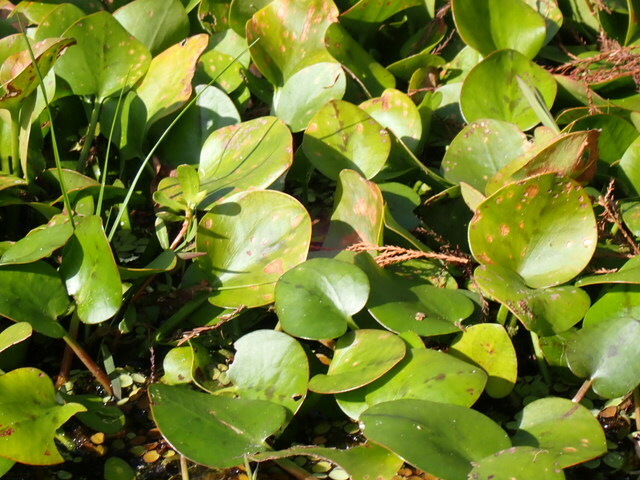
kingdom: Plantae
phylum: Tracheophyta
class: Liliopsida
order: Alismatales
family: Hydrocharitaceae
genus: Hydrocharis
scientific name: Hydrocharis spongia
